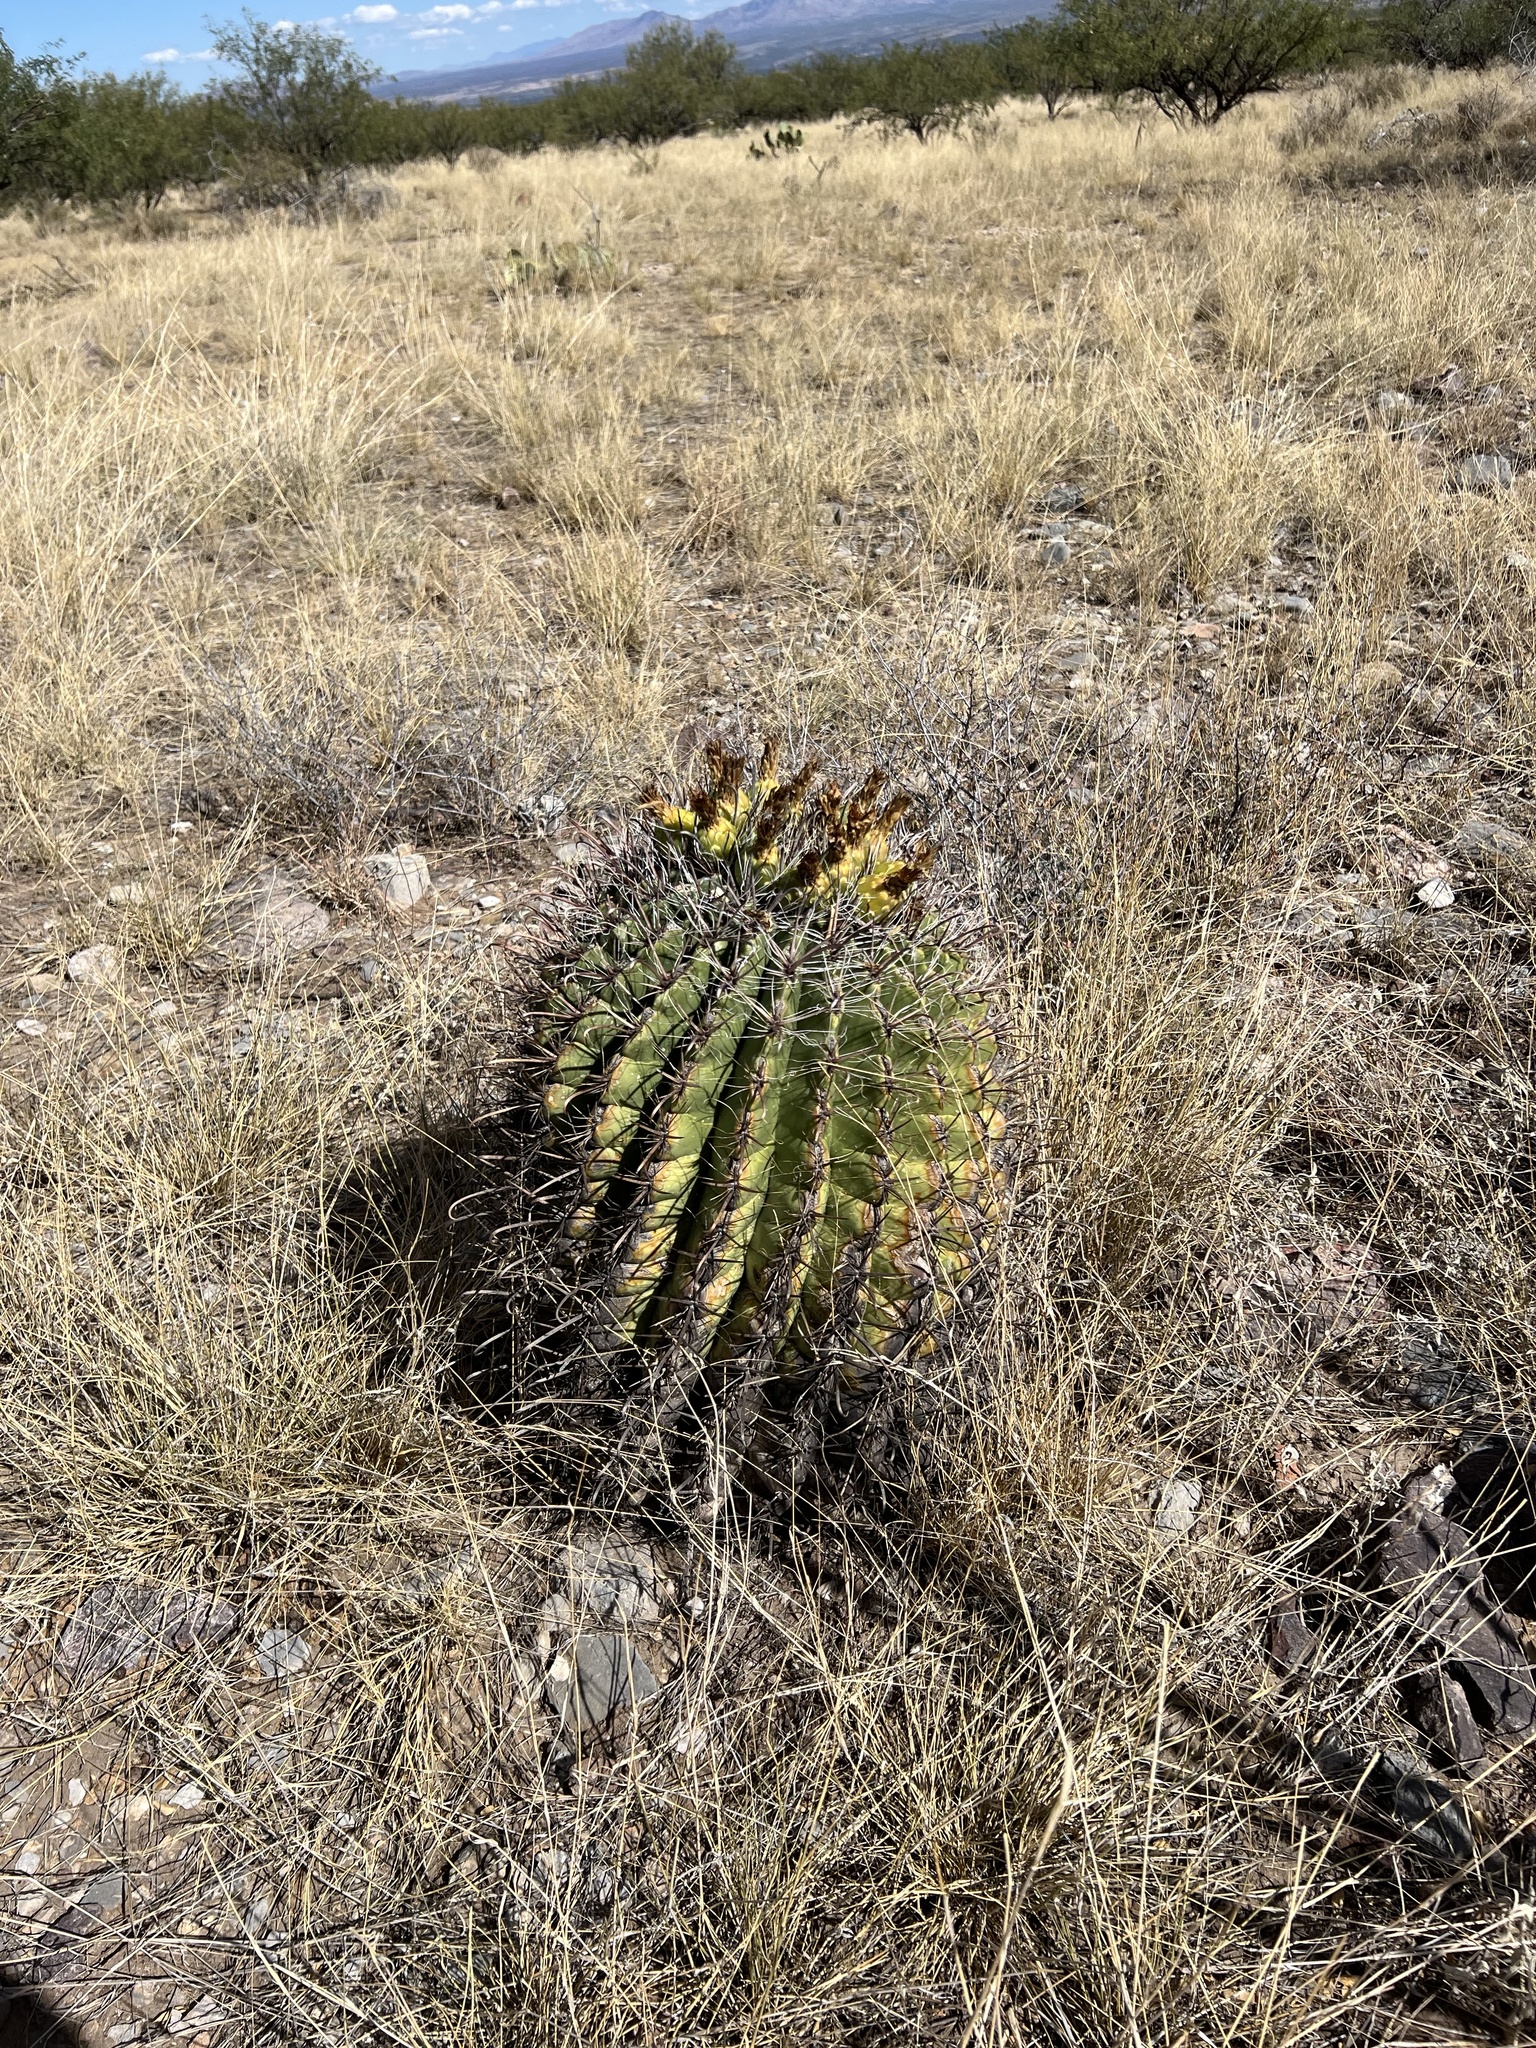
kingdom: Plantae
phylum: Tracheophyta
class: Magnoliopsida
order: Caryophyllales
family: Cactaceae
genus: Ferocactus
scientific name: Ferocactus wislizeni
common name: Candy barrel cactus
